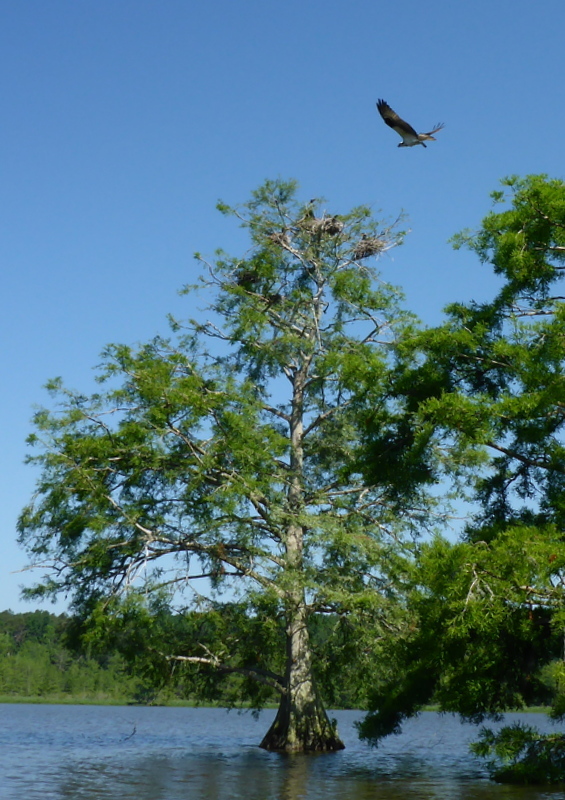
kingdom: Animalia
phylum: Chordata
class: Aves
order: Accipitriformes
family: Pandionidae
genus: Pandion
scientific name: Pandion haliaetus
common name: Osprey
